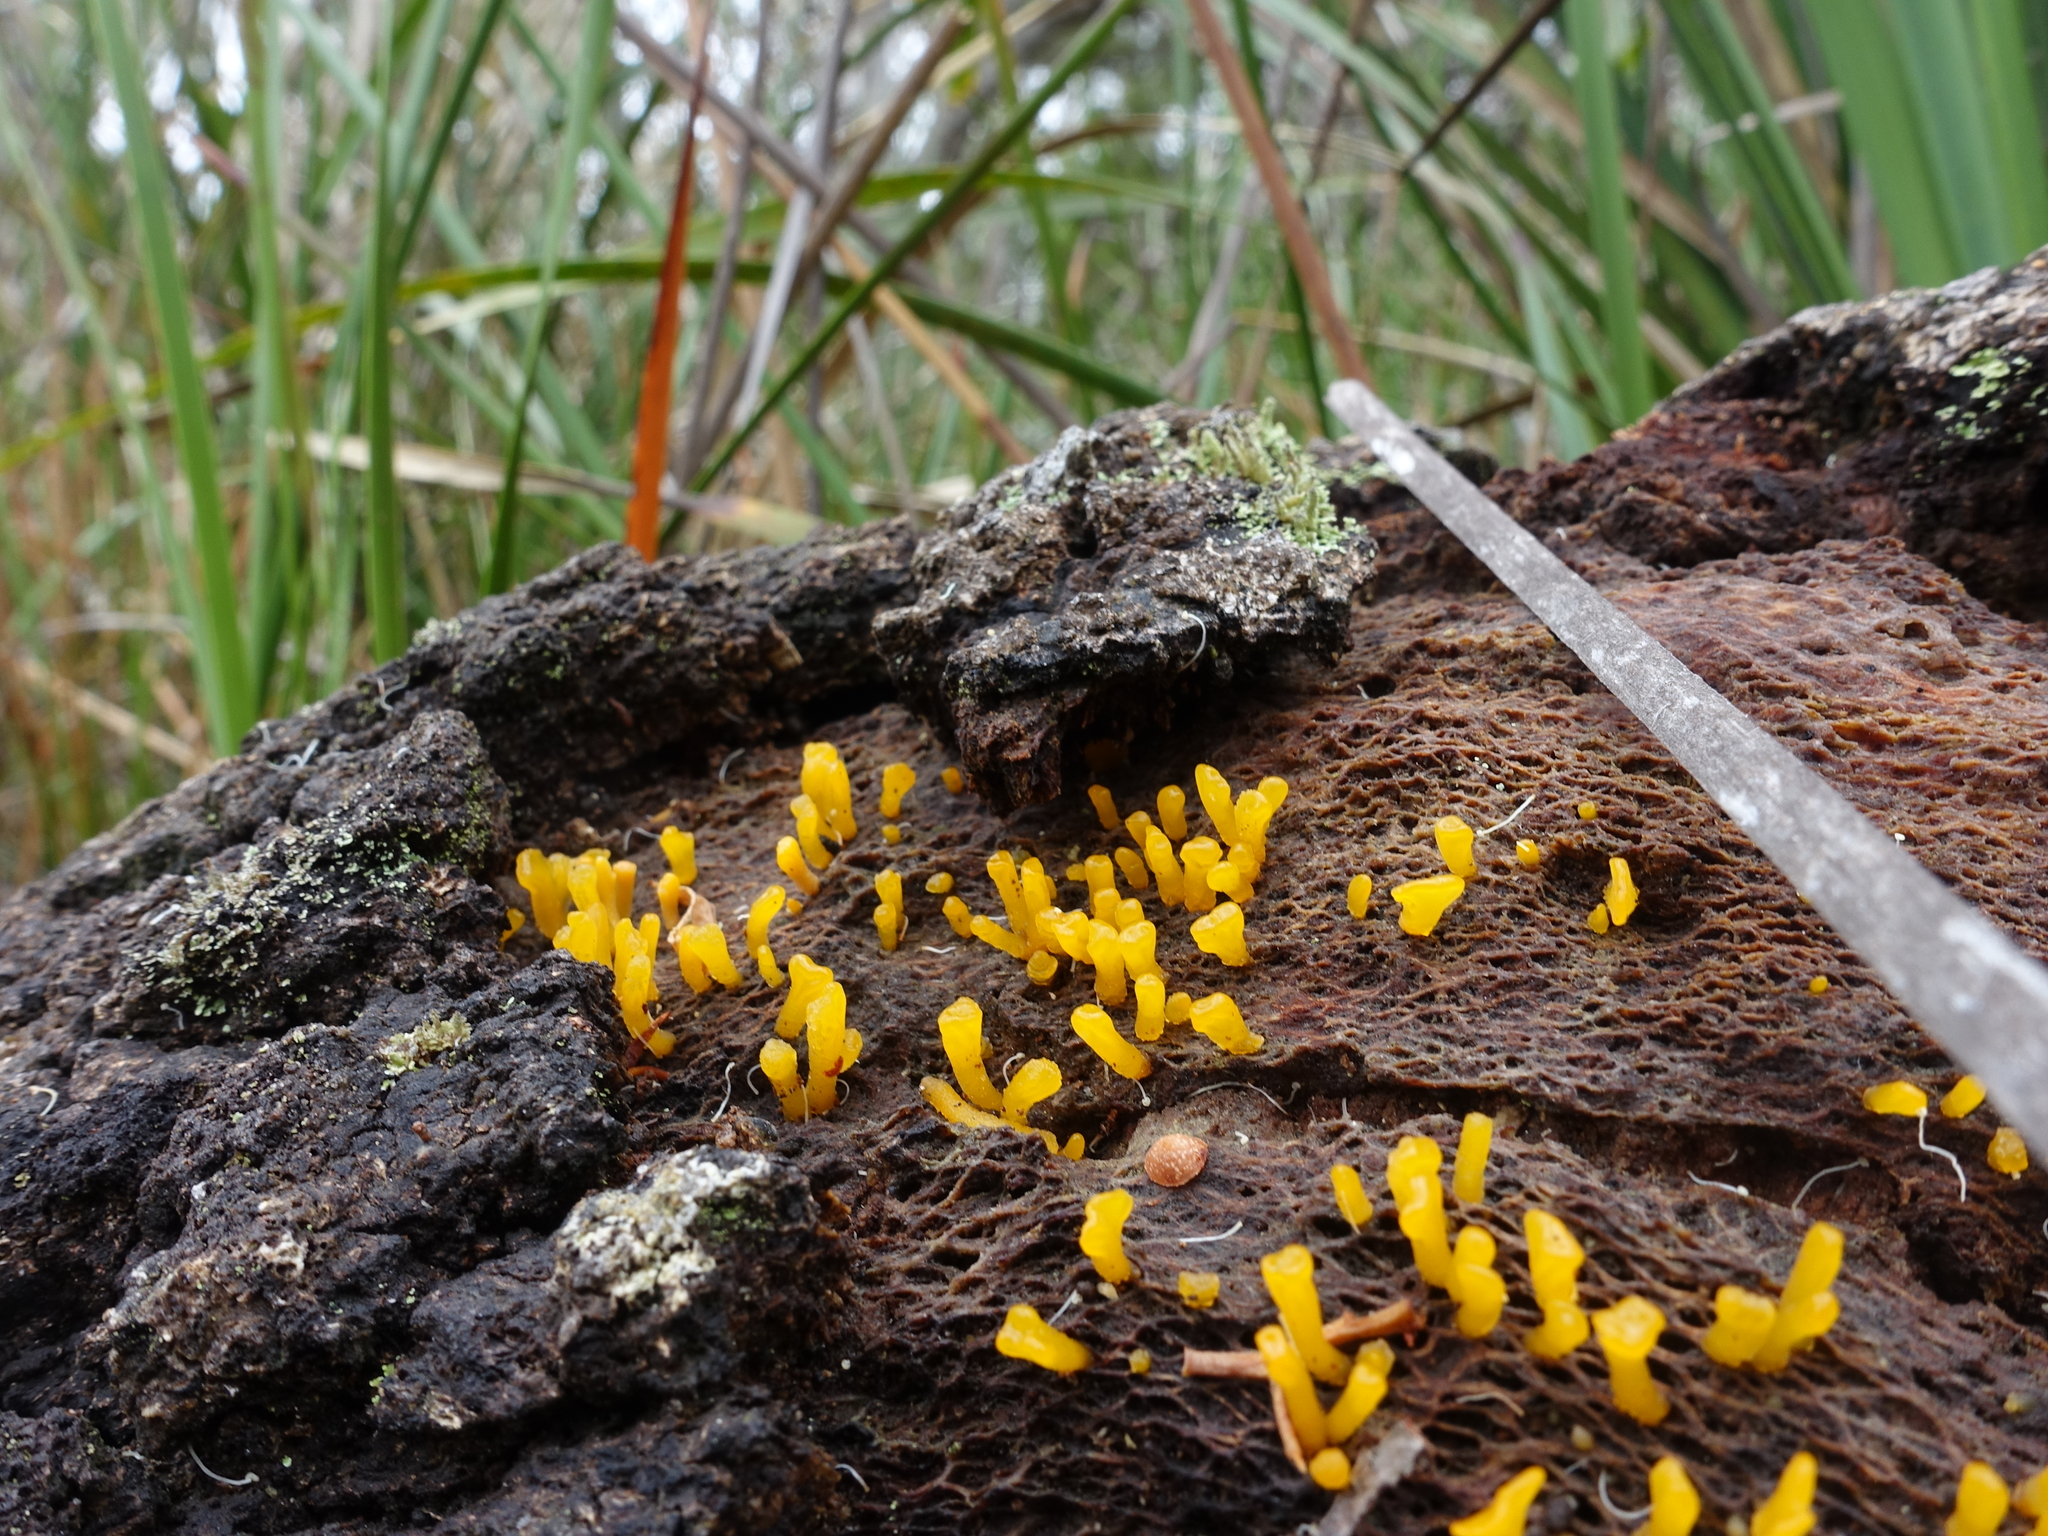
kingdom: Fungi
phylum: Basidiomycota
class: Dacrymycetes
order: Dacrymycetales
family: Dacrymycetaceae
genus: Calocera
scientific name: Calocera guepinioides
